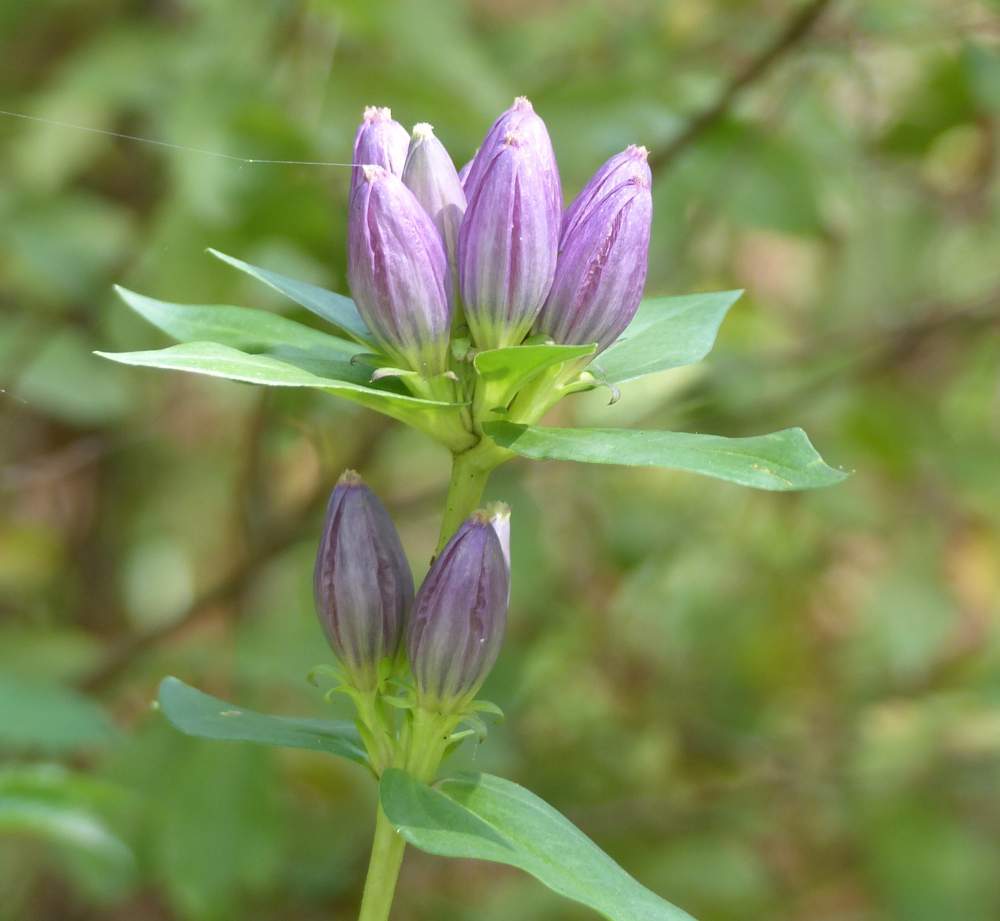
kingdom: Plantae
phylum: Tracheophyta
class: Magnoliopsida
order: Gentianales
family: Gentianaceae
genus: Gentiana
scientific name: Gentiana andrewsii
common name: Bottle gentian
